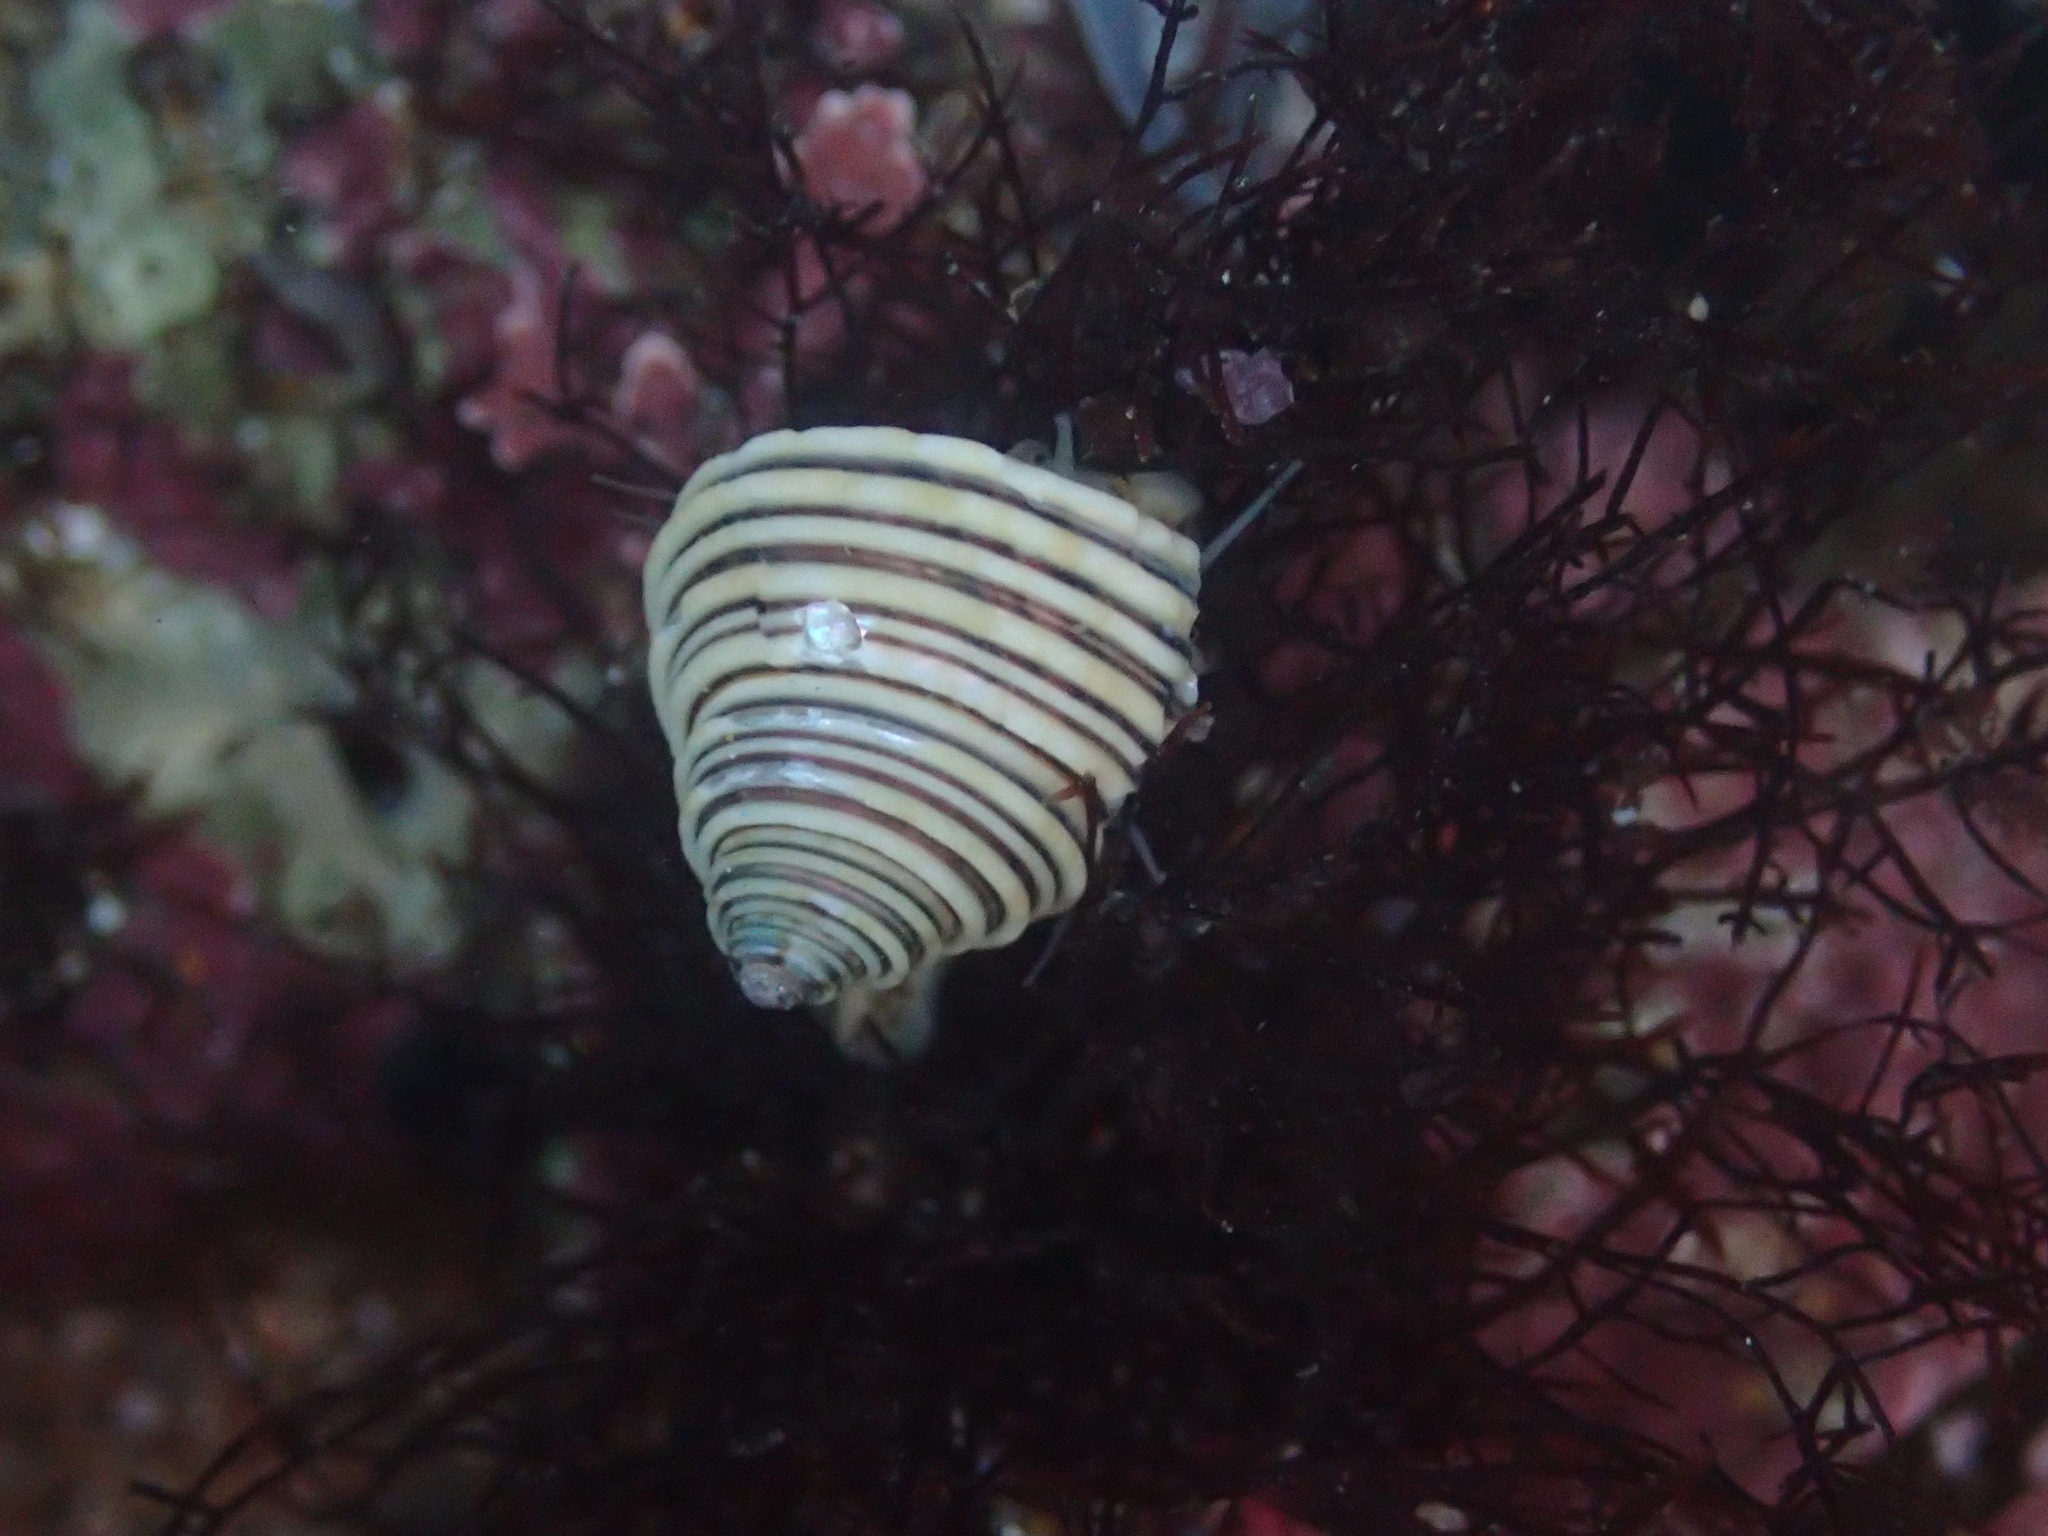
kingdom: Animalia
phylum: Mollusca
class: Gastropoda
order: Trochida
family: Calliostomatidae
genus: Calliostoma
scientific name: Calliostoma canaliculatum
